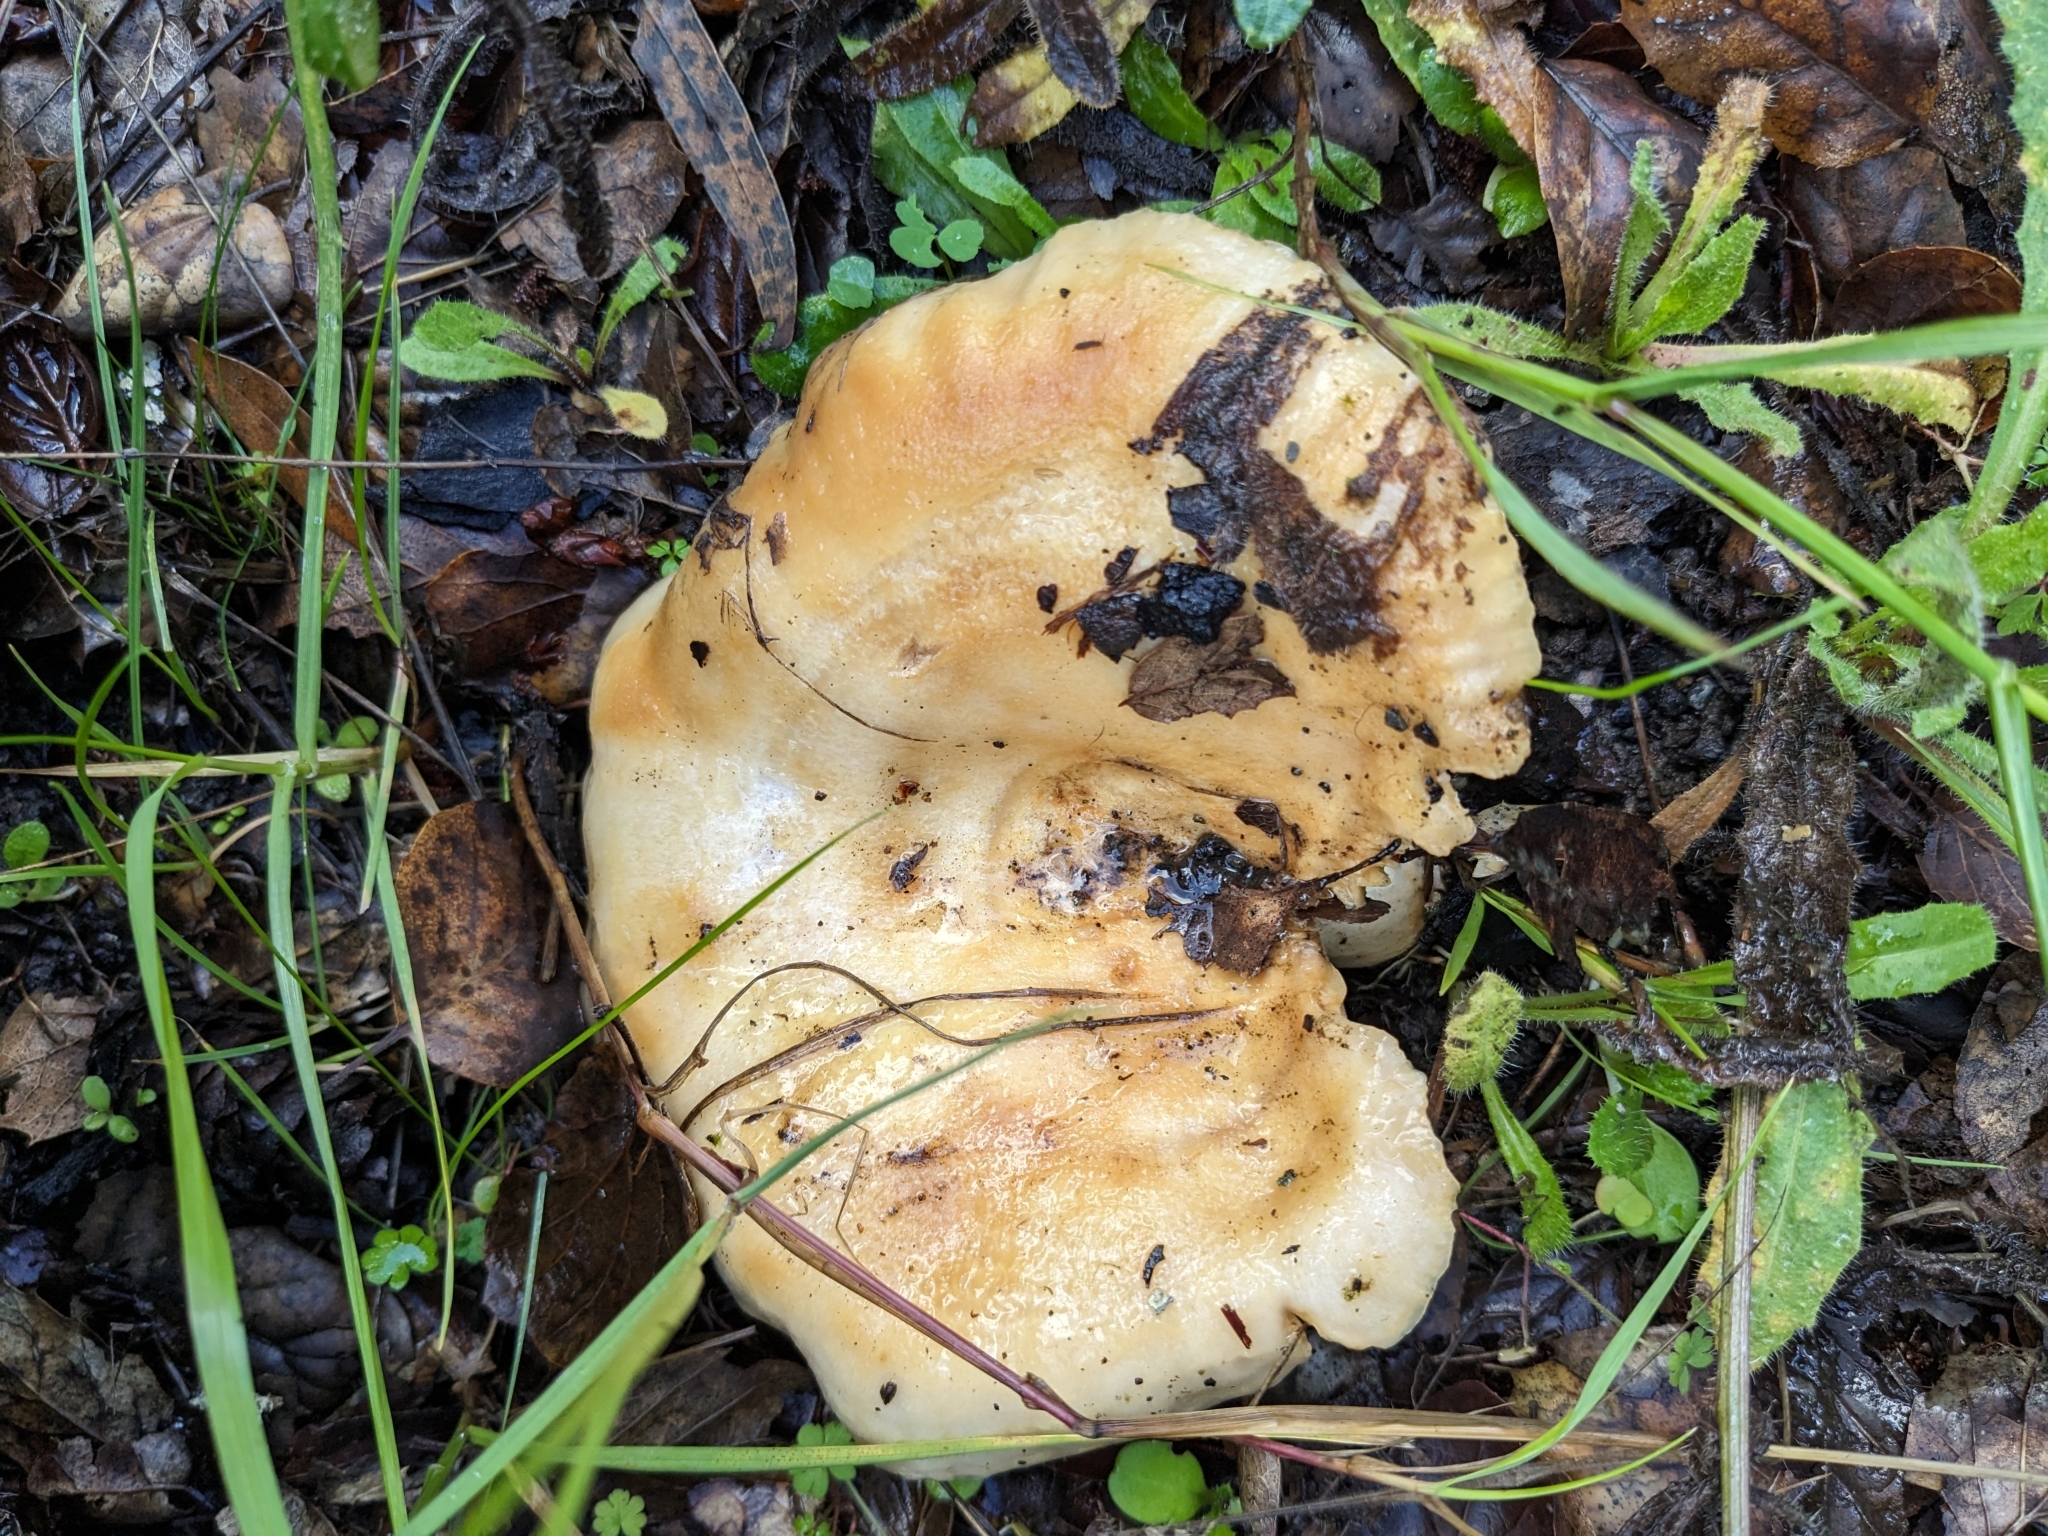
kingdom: Fungi
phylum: Basidiomycota
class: Agaricomycetes
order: Russulales
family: Russulaceae
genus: Lactarius
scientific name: Lactarius alnicola
